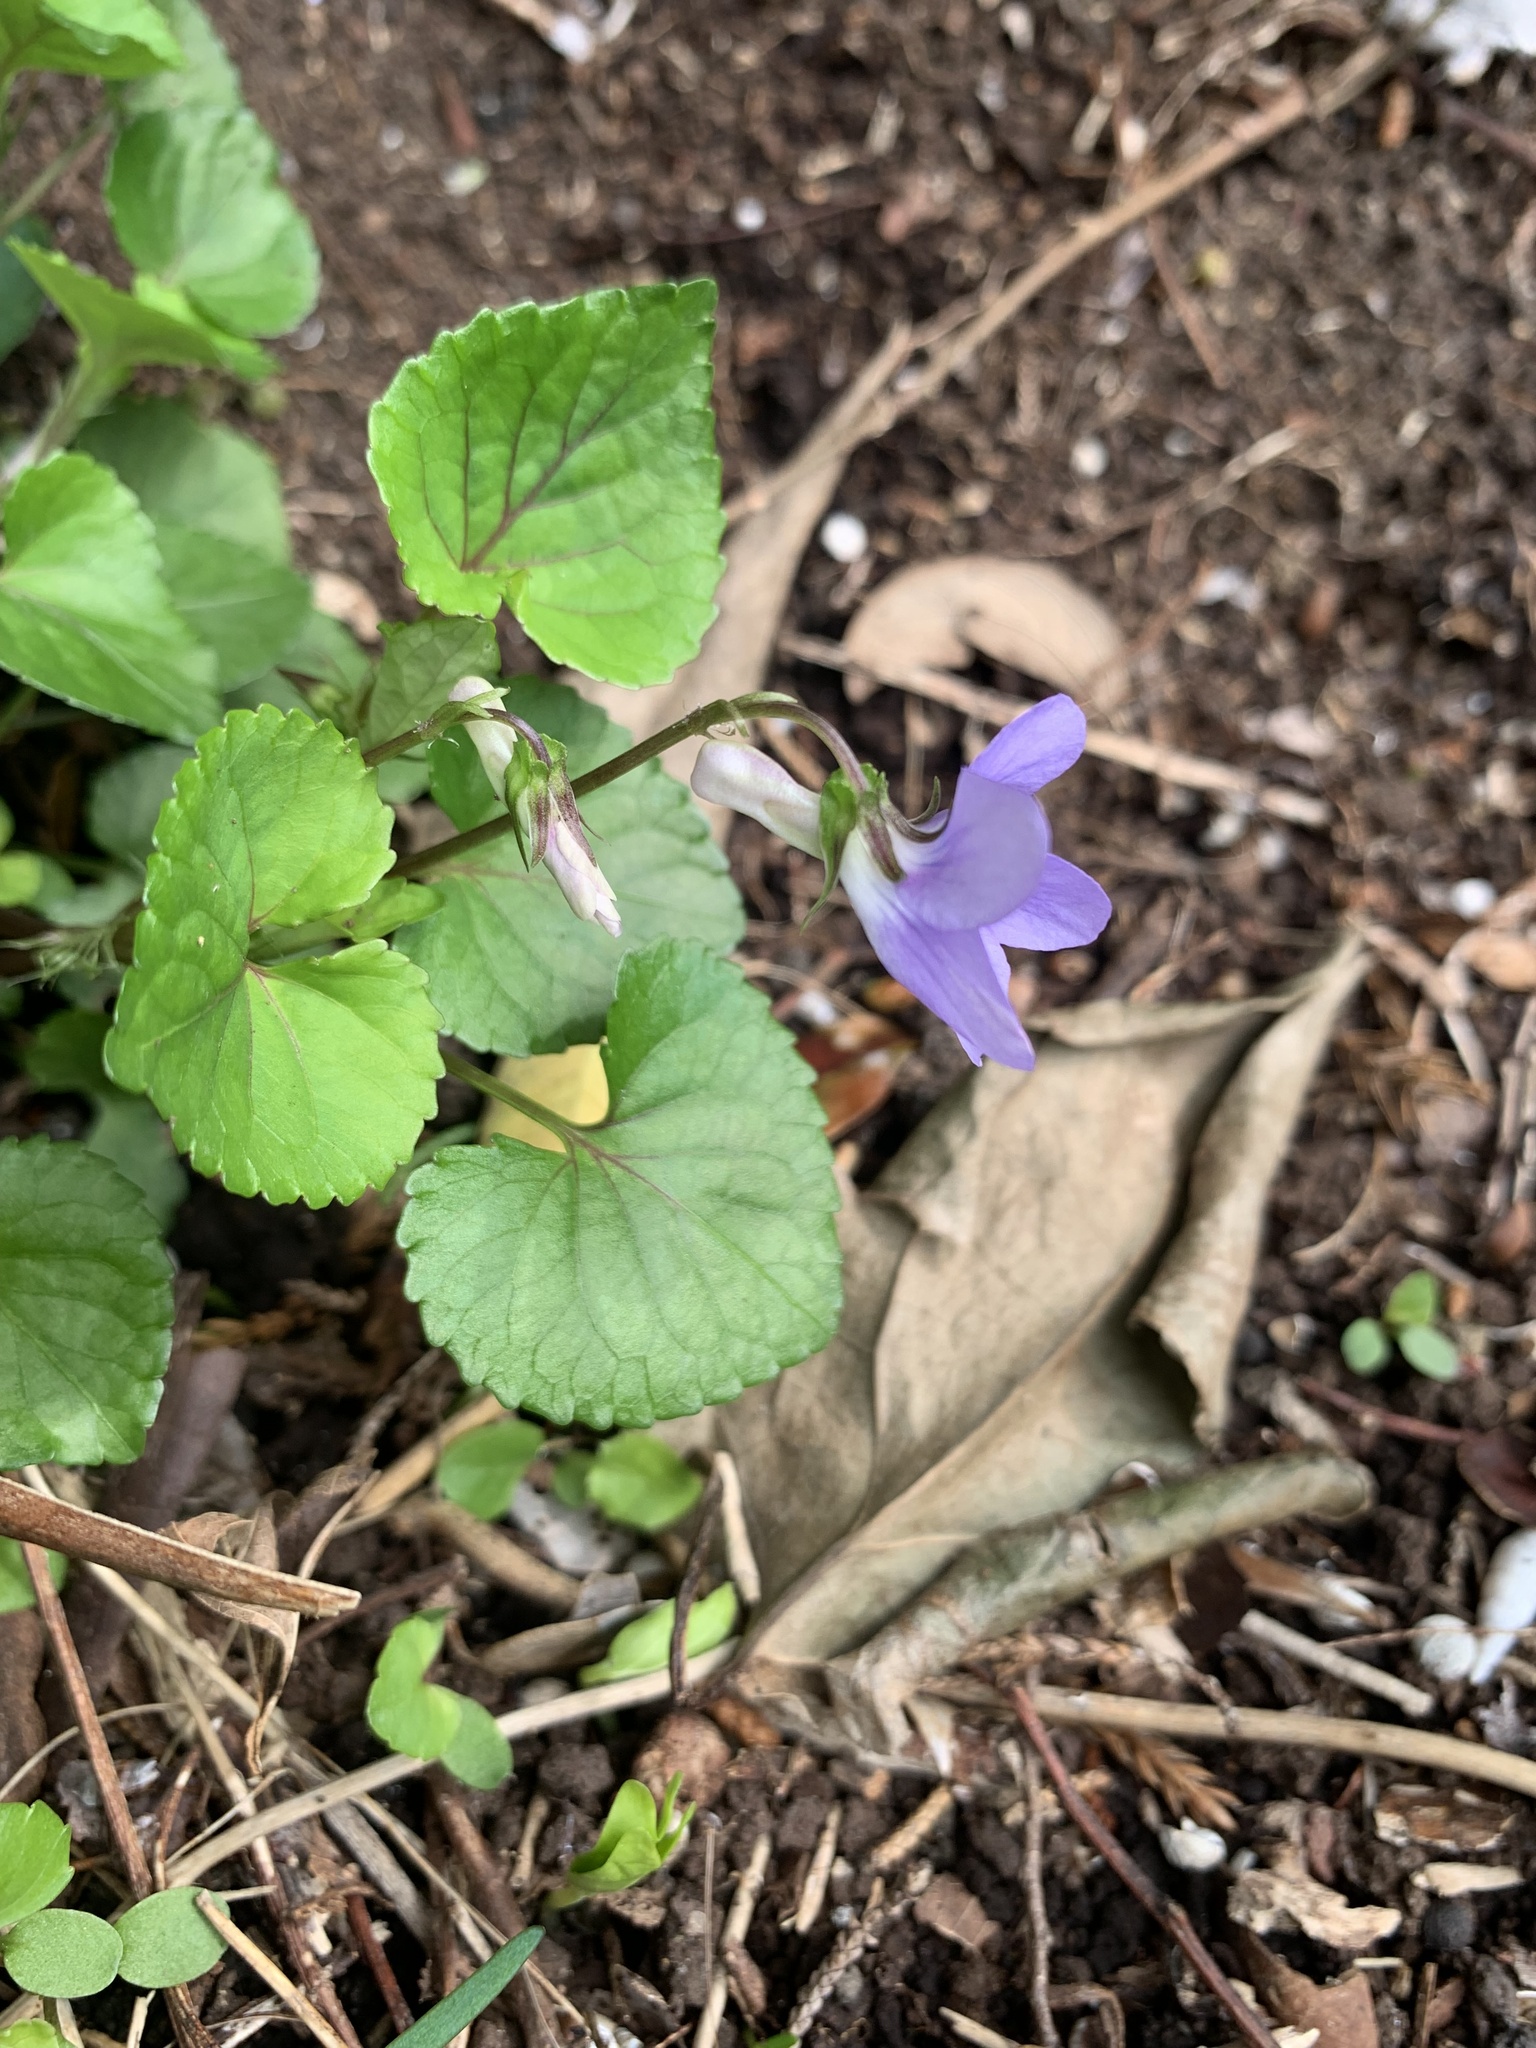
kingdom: Plantae
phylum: Tracheophyta
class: Magnoliopsida
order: Malpighiales
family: Violaceae
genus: Viola
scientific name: Viola grypoceras
